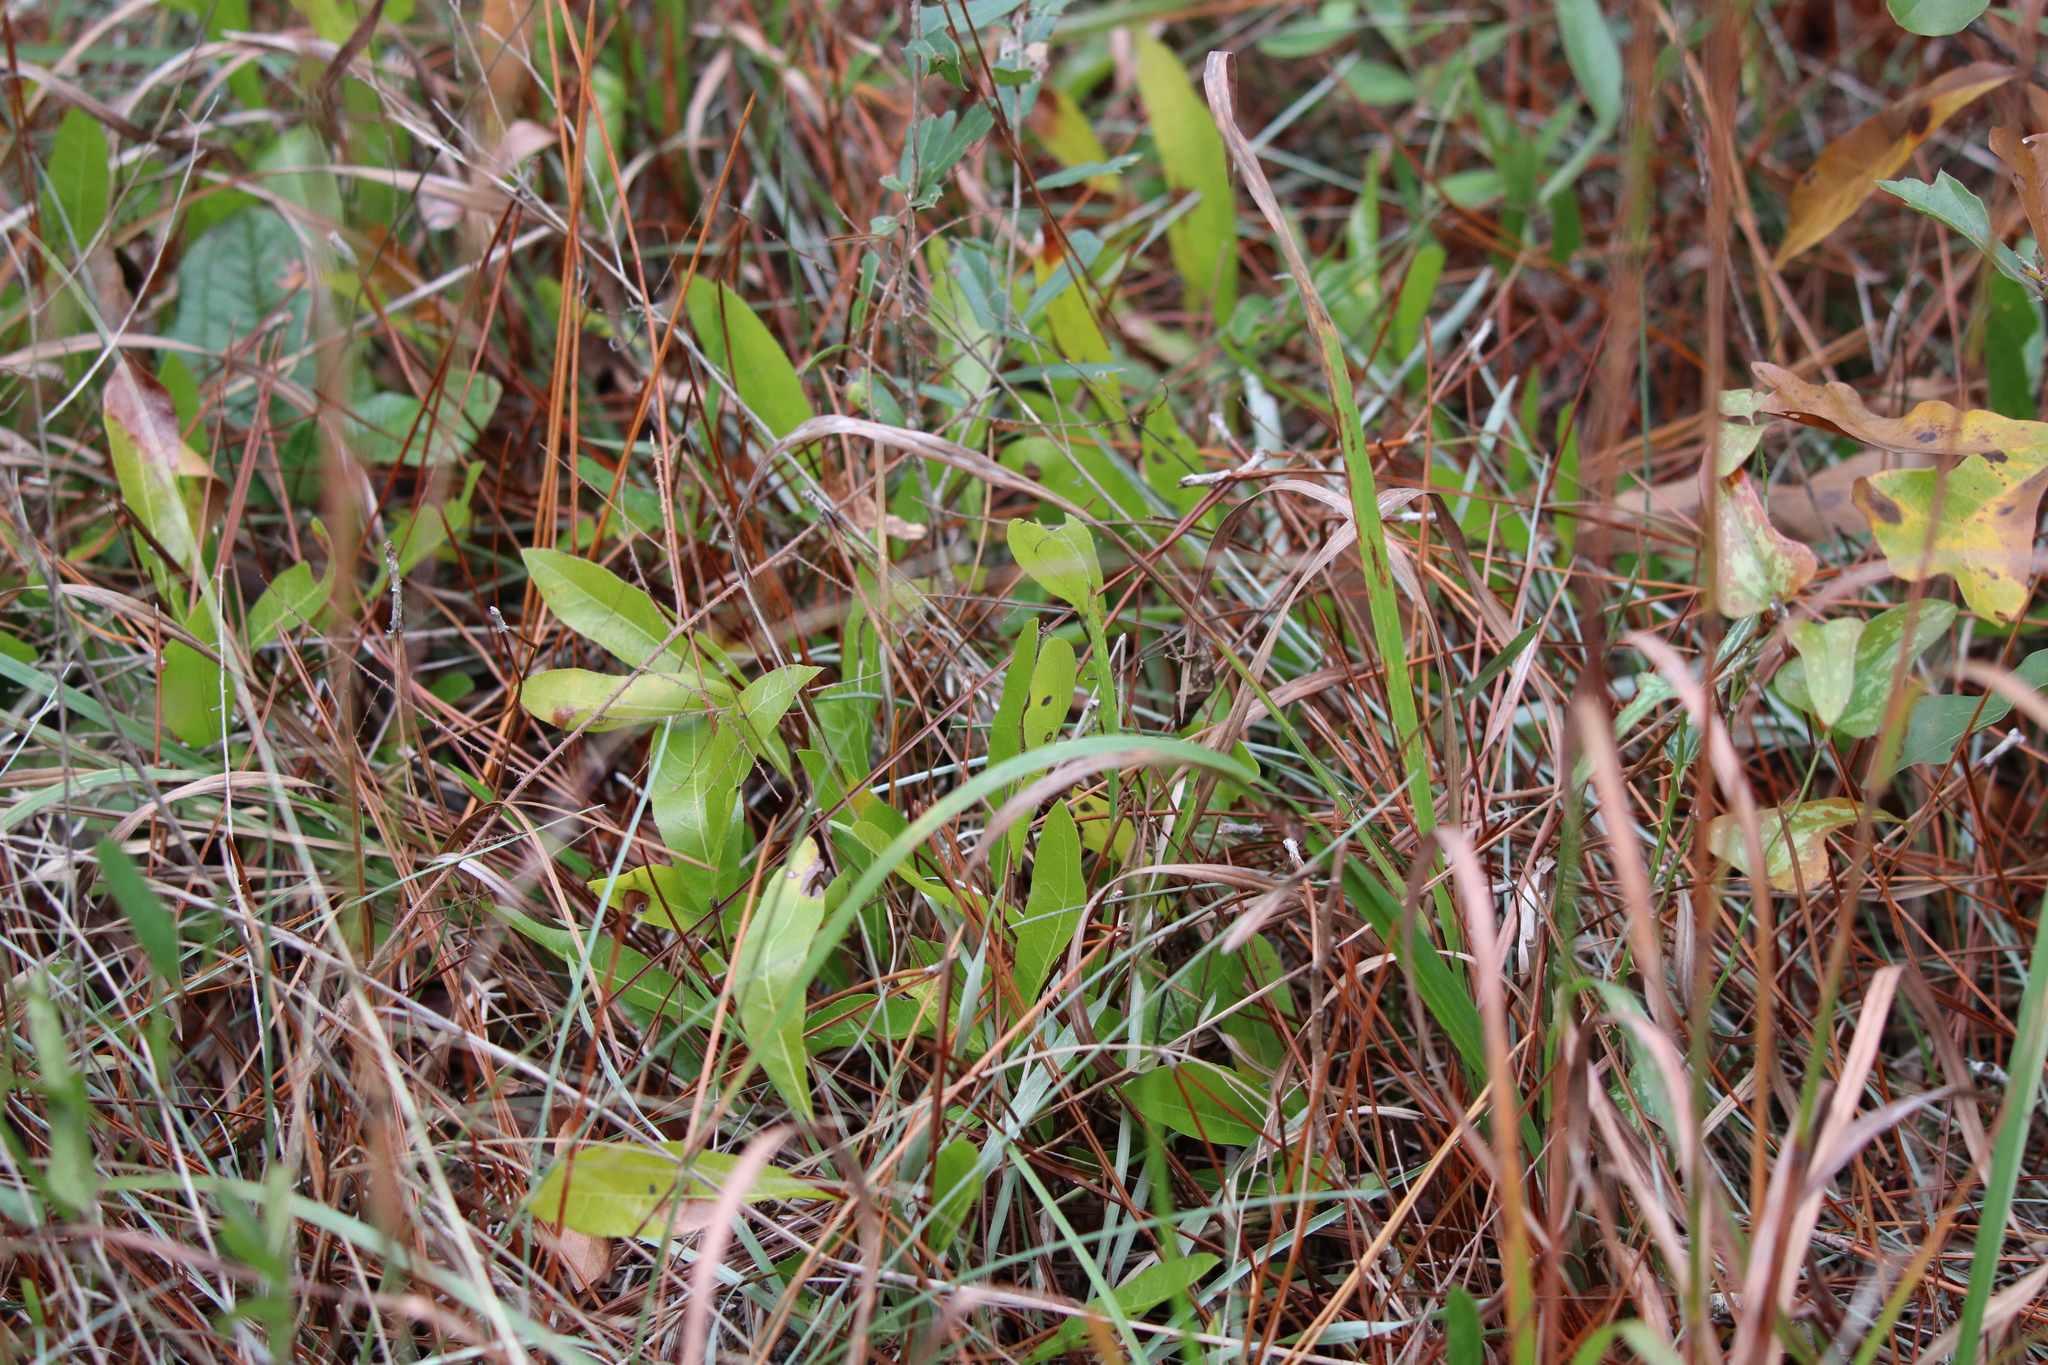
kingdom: Plantae
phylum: Tracheophyta
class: Magnoliopsida
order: Malpighiales
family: Chrysobalanaceae
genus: Geobalanus
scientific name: Geobalanus oblongifolius
